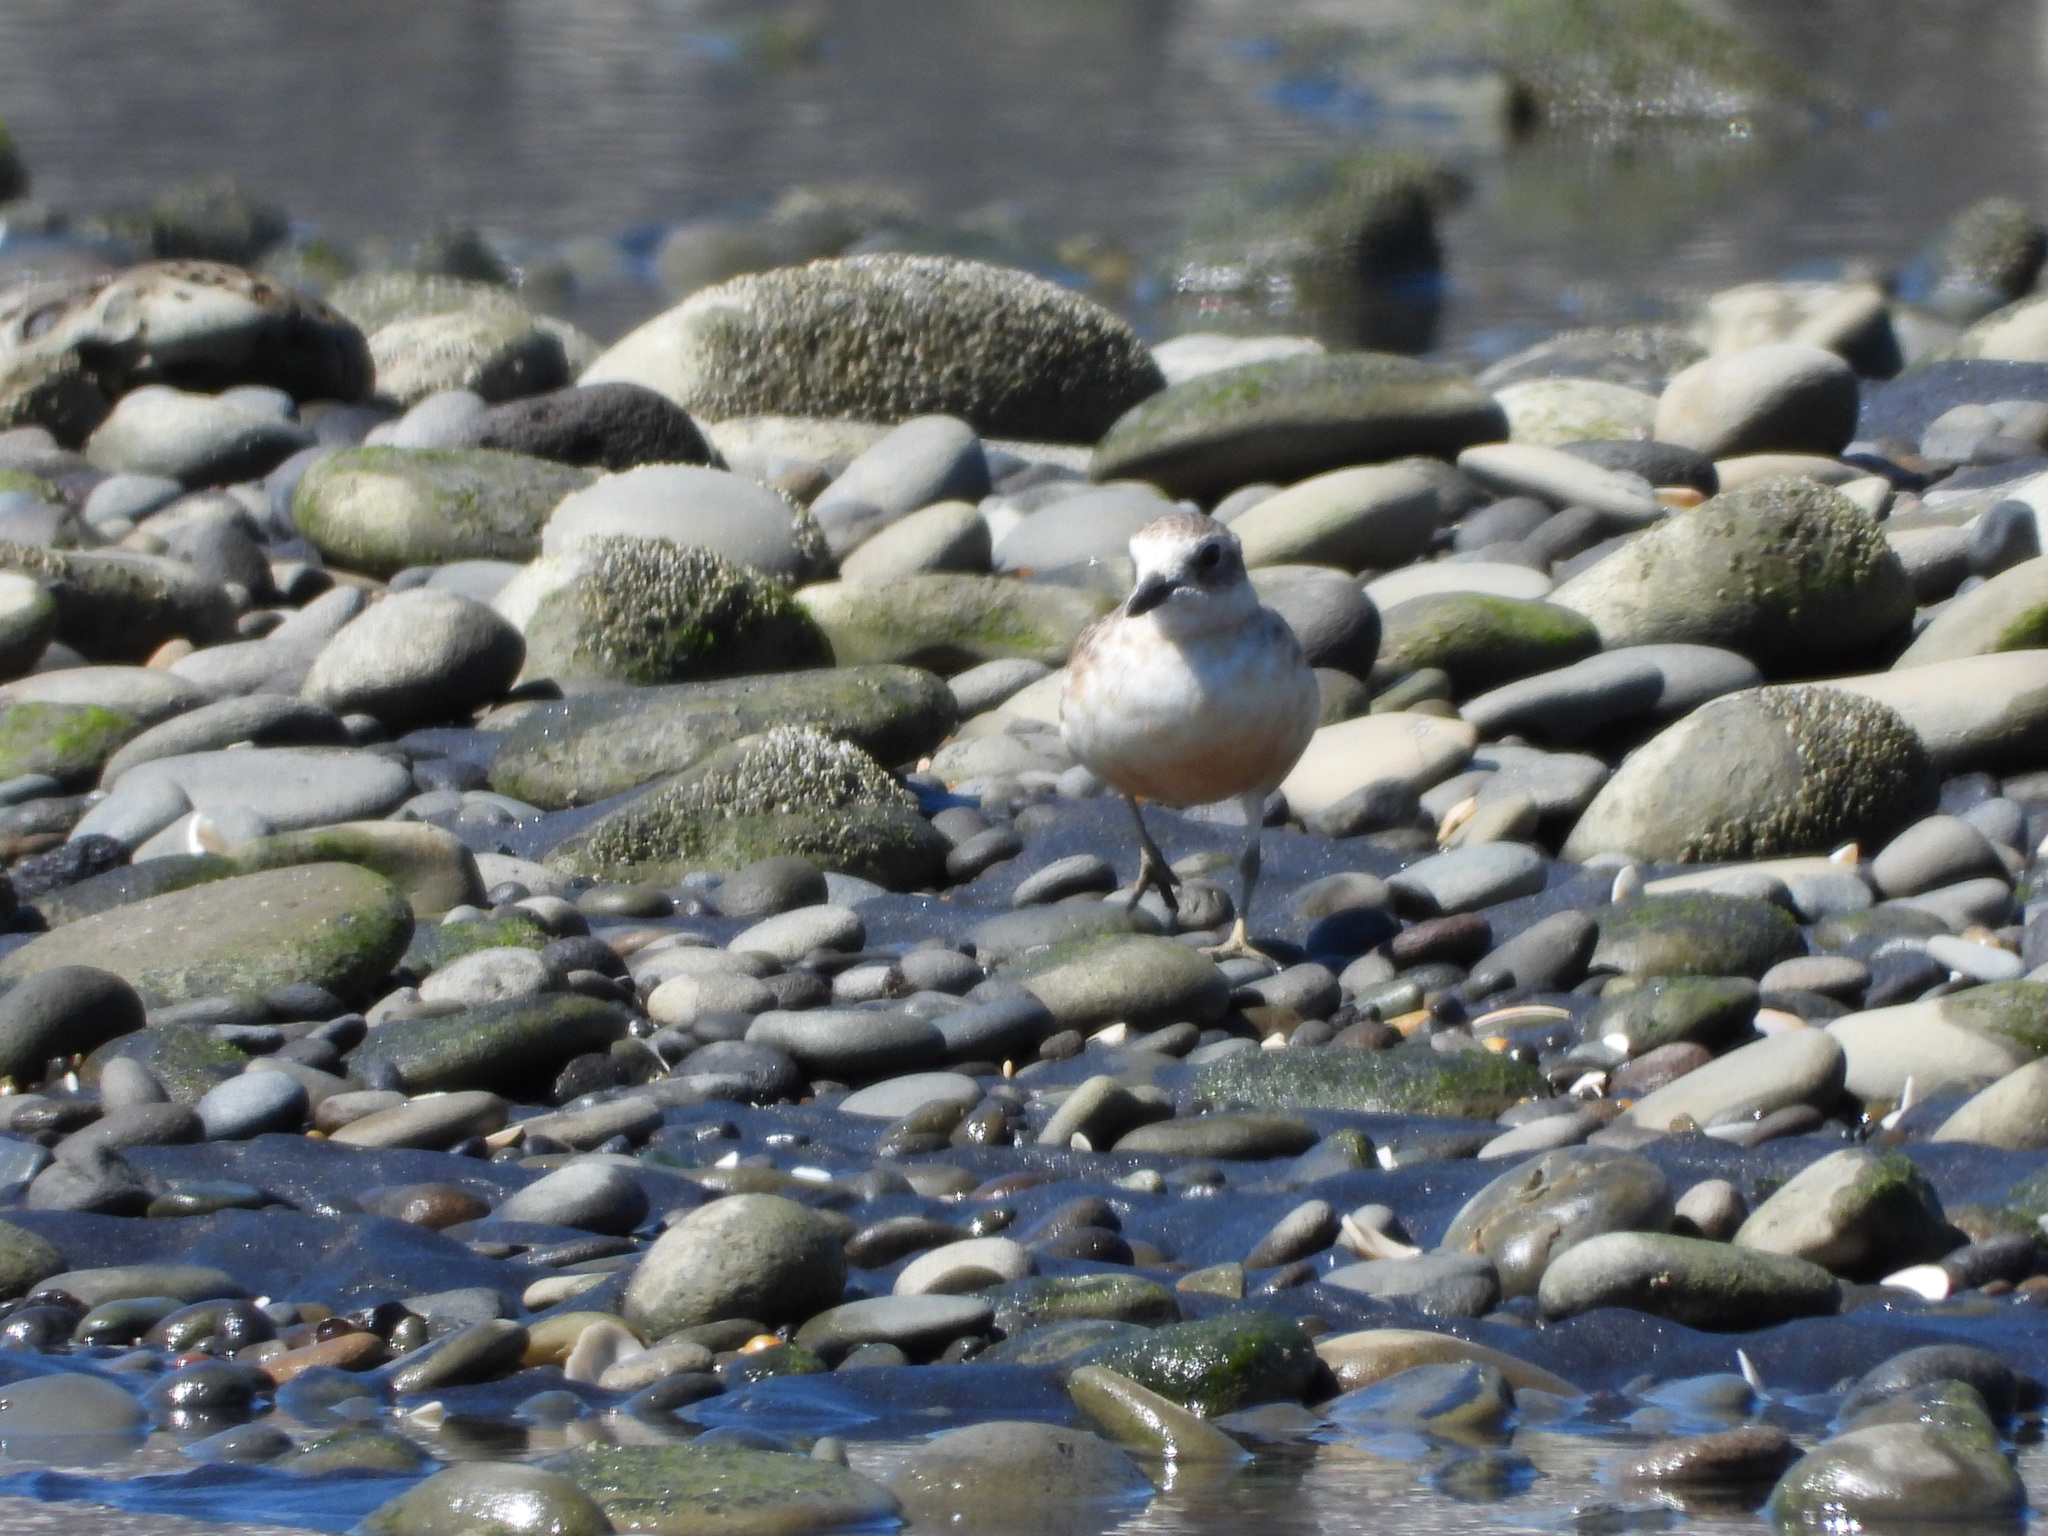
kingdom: Animalia
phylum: Chordata
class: Aves
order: Charadriiformes
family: Charadriidae
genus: Anarhynchus
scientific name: Anarhynchus
